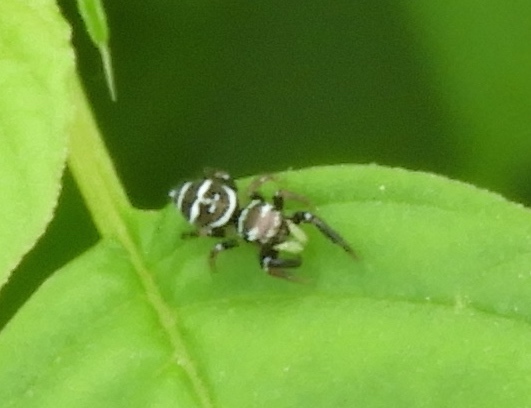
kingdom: Animalia
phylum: Arthropoda
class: Arachnida
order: Araneae
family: Salticidae
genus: Sassacus
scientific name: Sassacus
